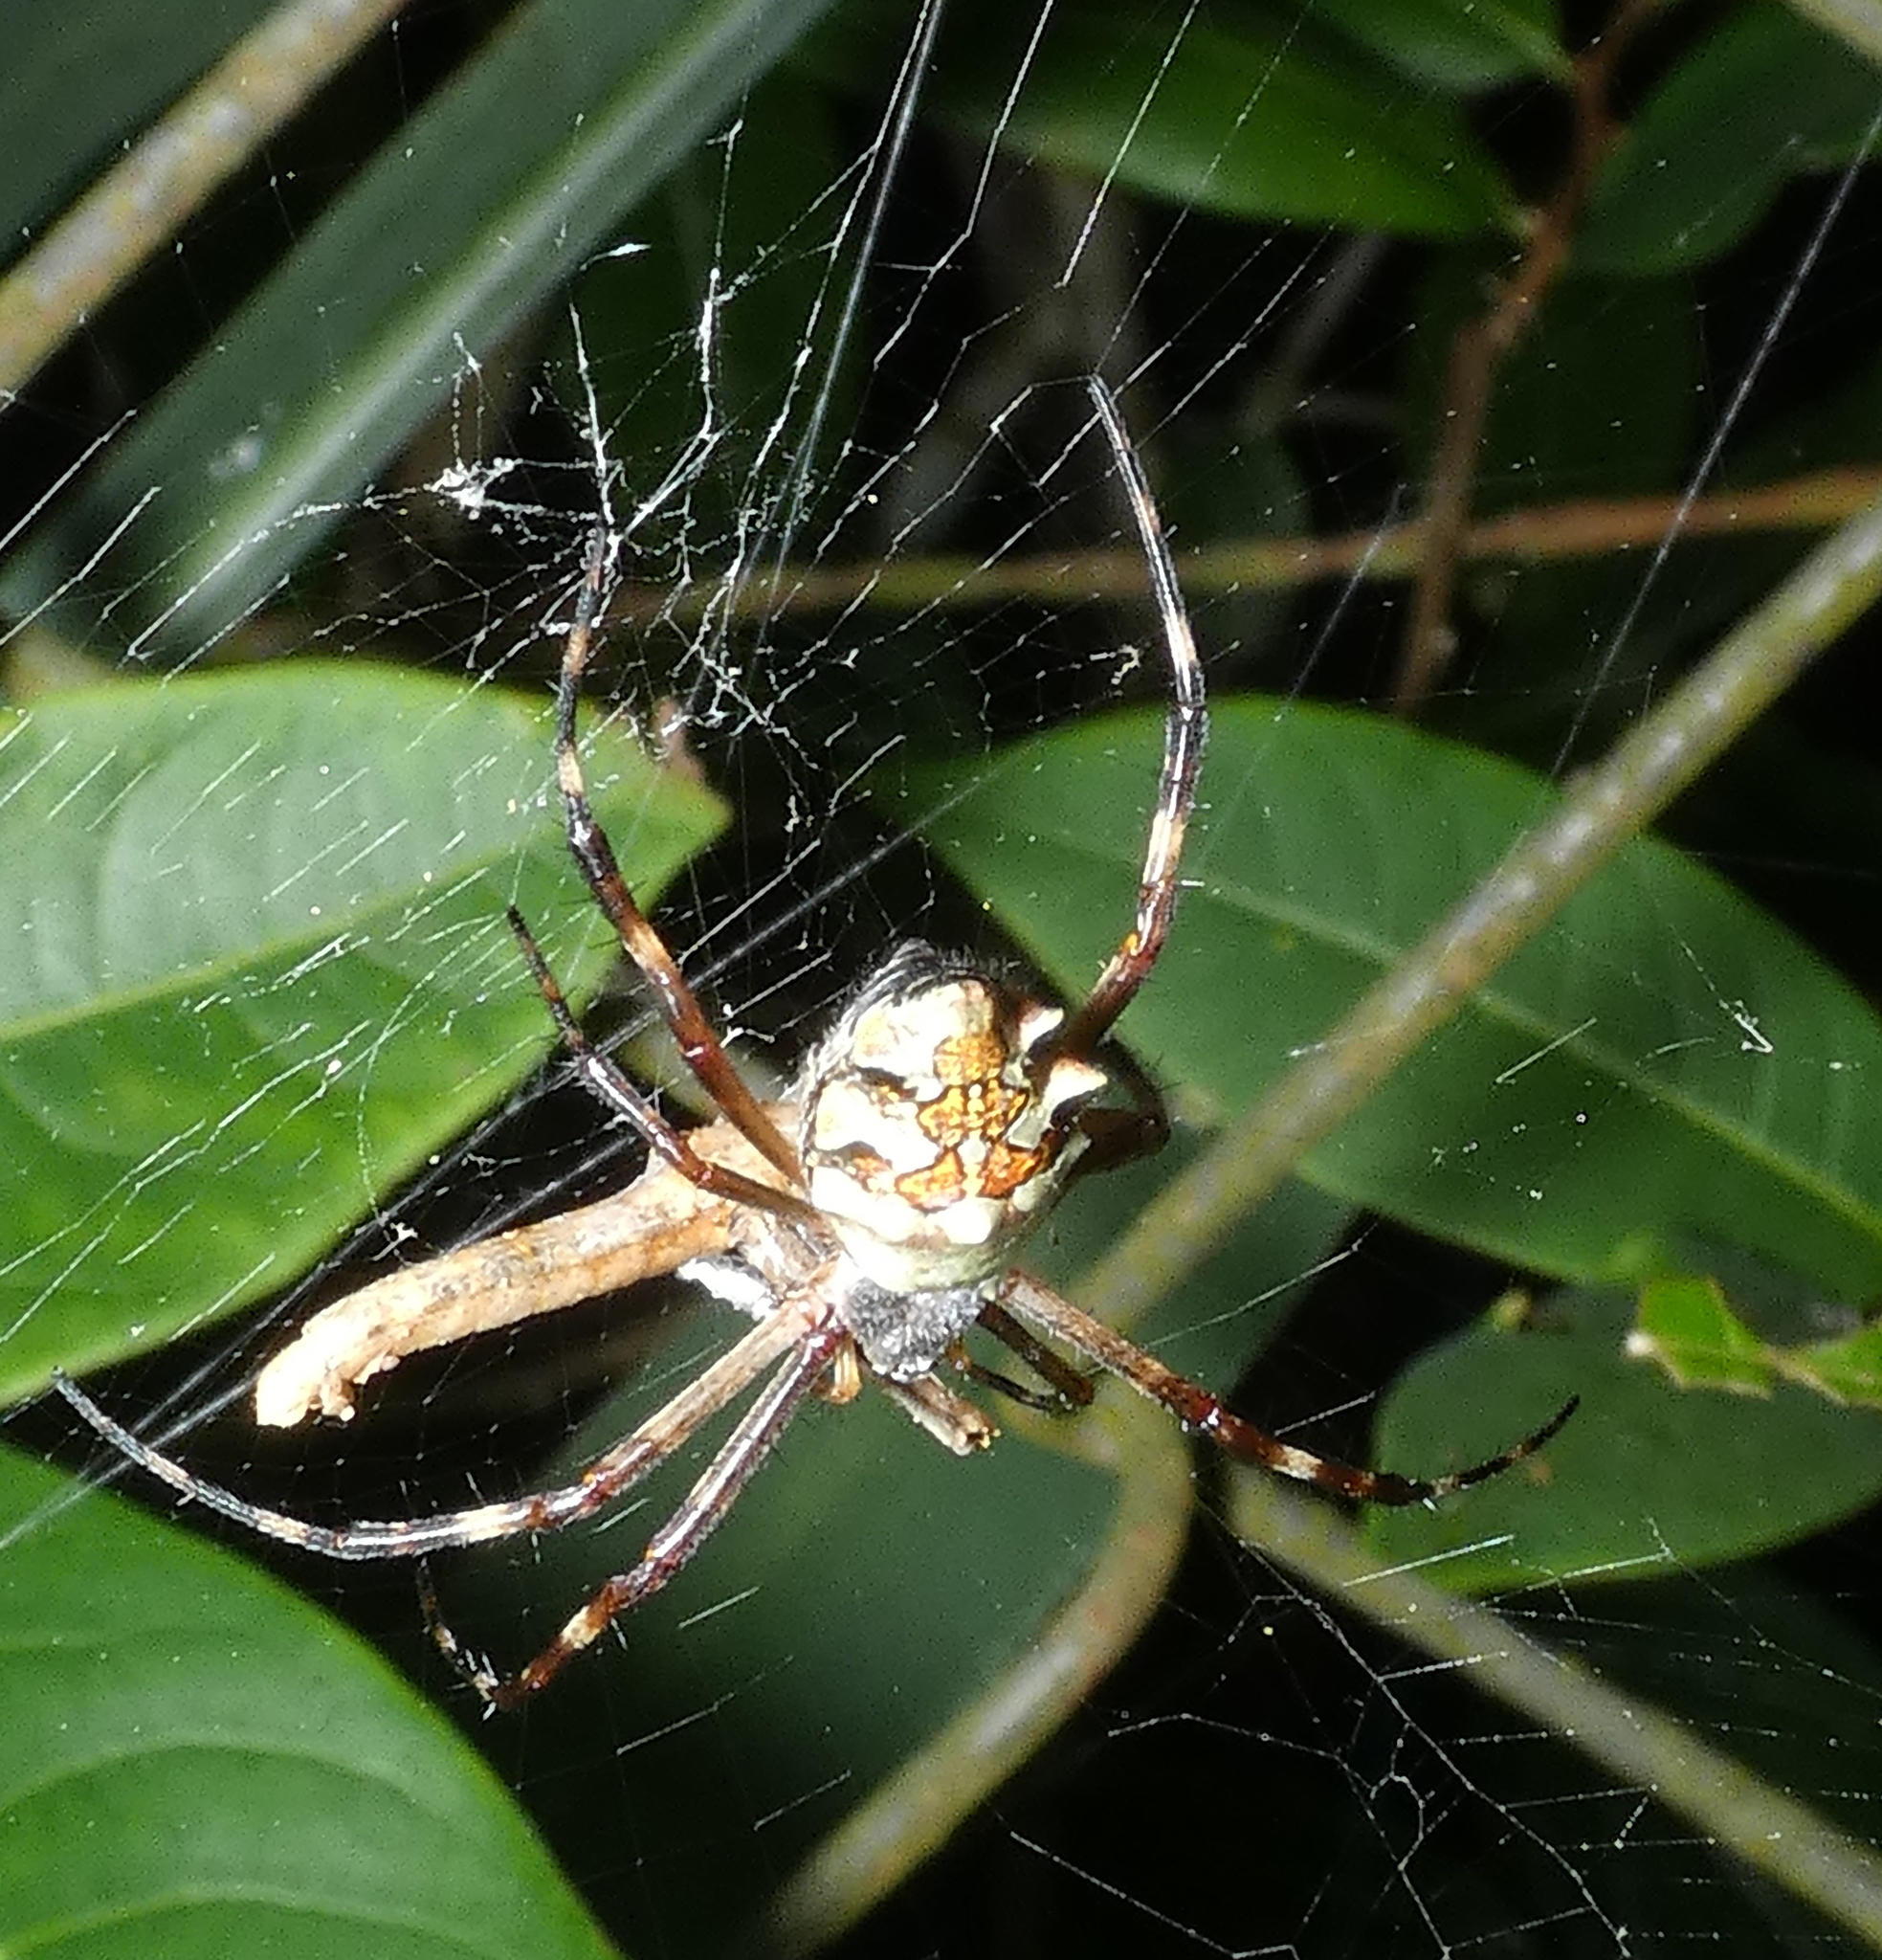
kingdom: Animalia
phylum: Arthropoda
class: Arachnida
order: Araneae
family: Araneidae
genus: Argiope
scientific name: Argiope argentata
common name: Orb weavers
